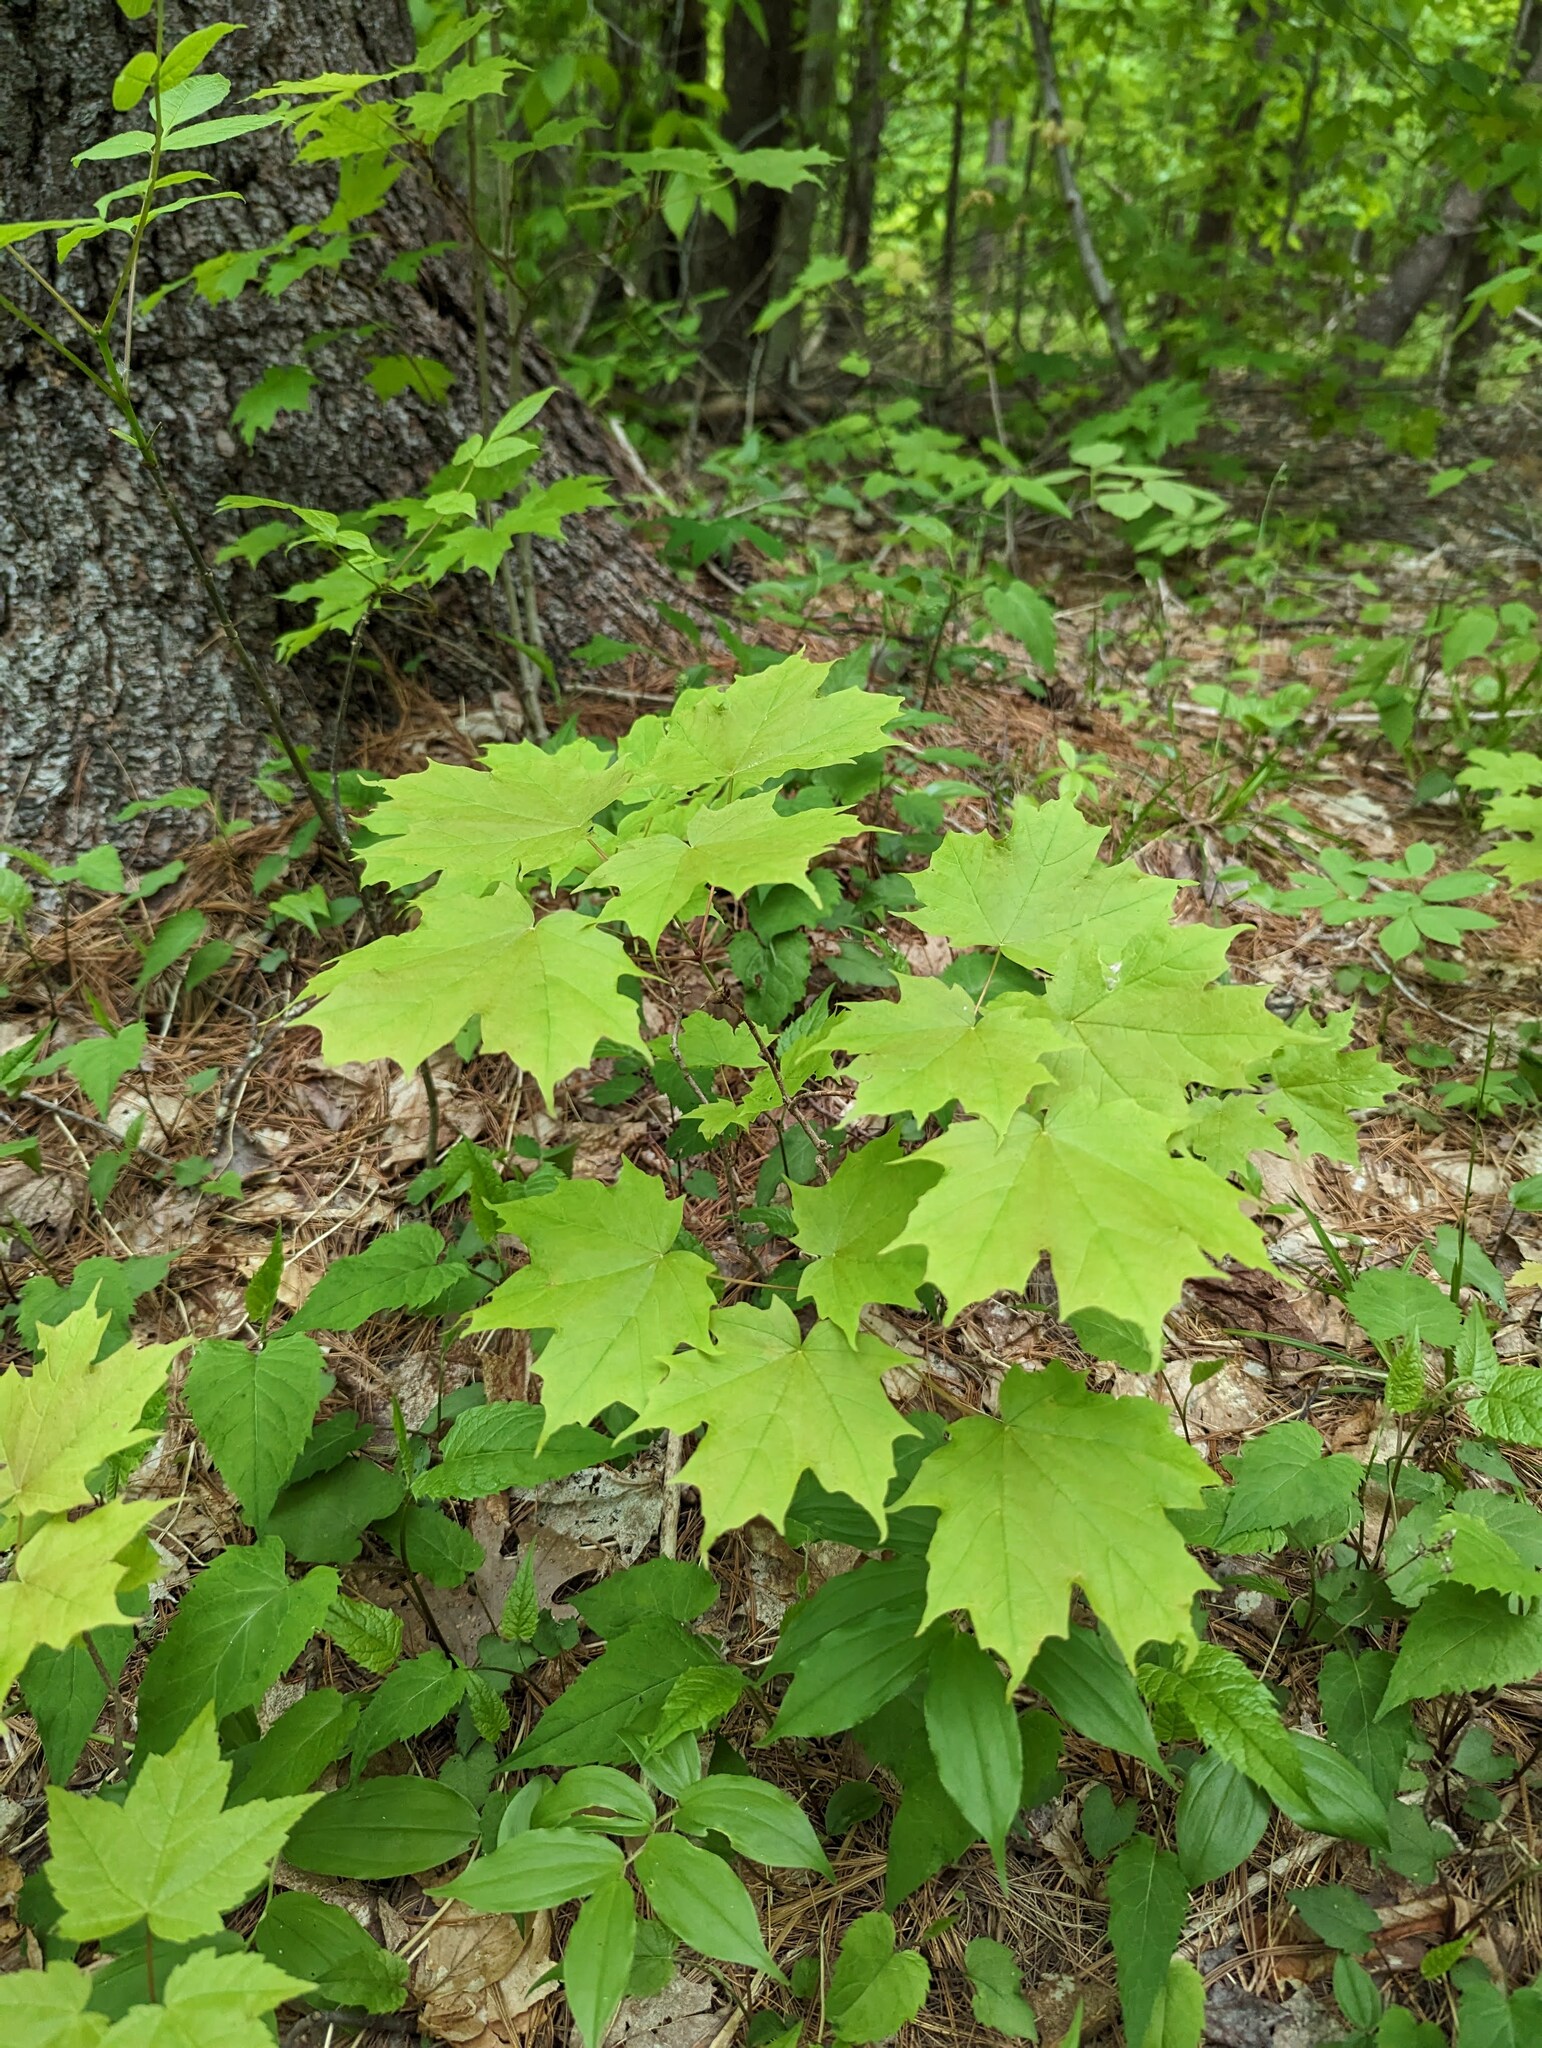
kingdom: Plantae
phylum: Tracheophyta
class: Magnoliopsida
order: Sapindales
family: Sapindaceae
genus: Acer
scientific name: Acer saccharum
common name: Sugar maple
